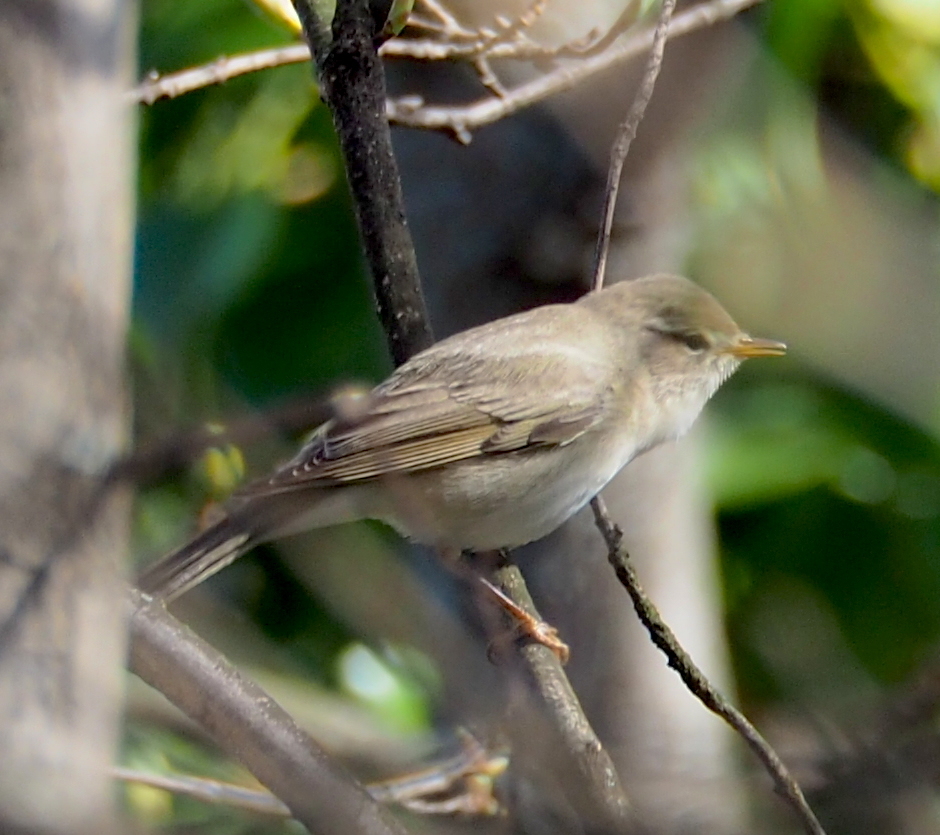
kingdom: Animalia
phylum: Chordata
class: Aves
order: Passeriformes
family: Phylloscopidae
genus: Phylloscopus
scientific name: Phylloscopus trochilus
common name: Willow warbler
